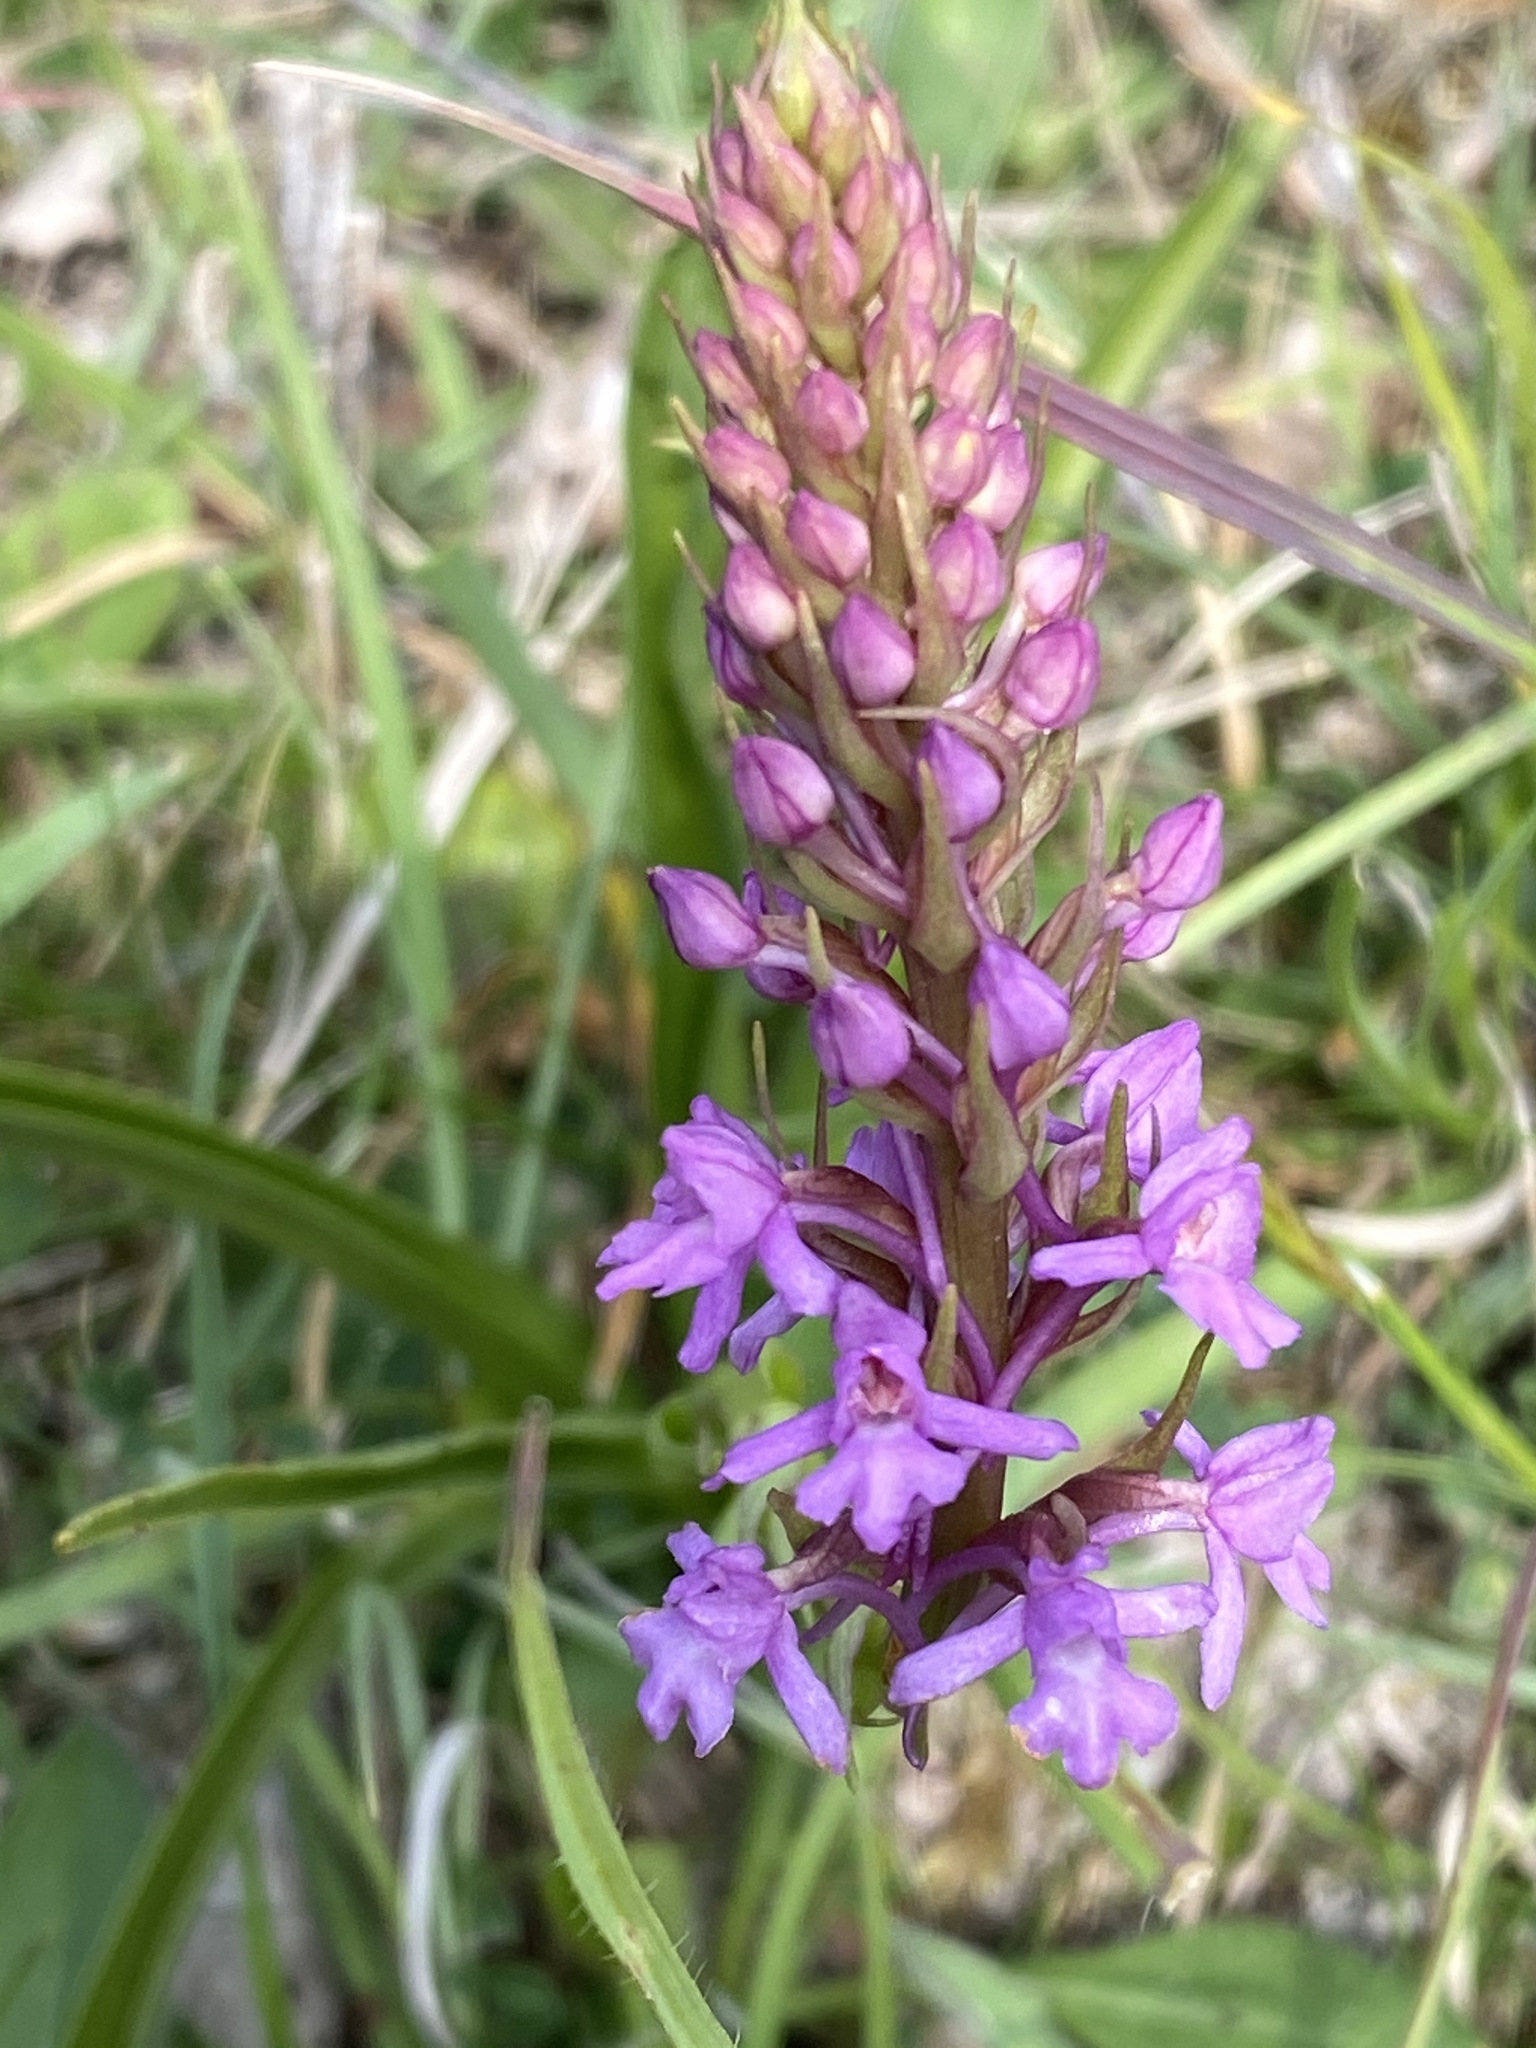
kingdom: Plantae
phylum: Tracheophyta
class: Liliopsida
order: Asparagales
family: Orchidaceae
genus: Gymnadenia
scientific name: Gymnadenia conopsea
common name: Fragrant orchid
